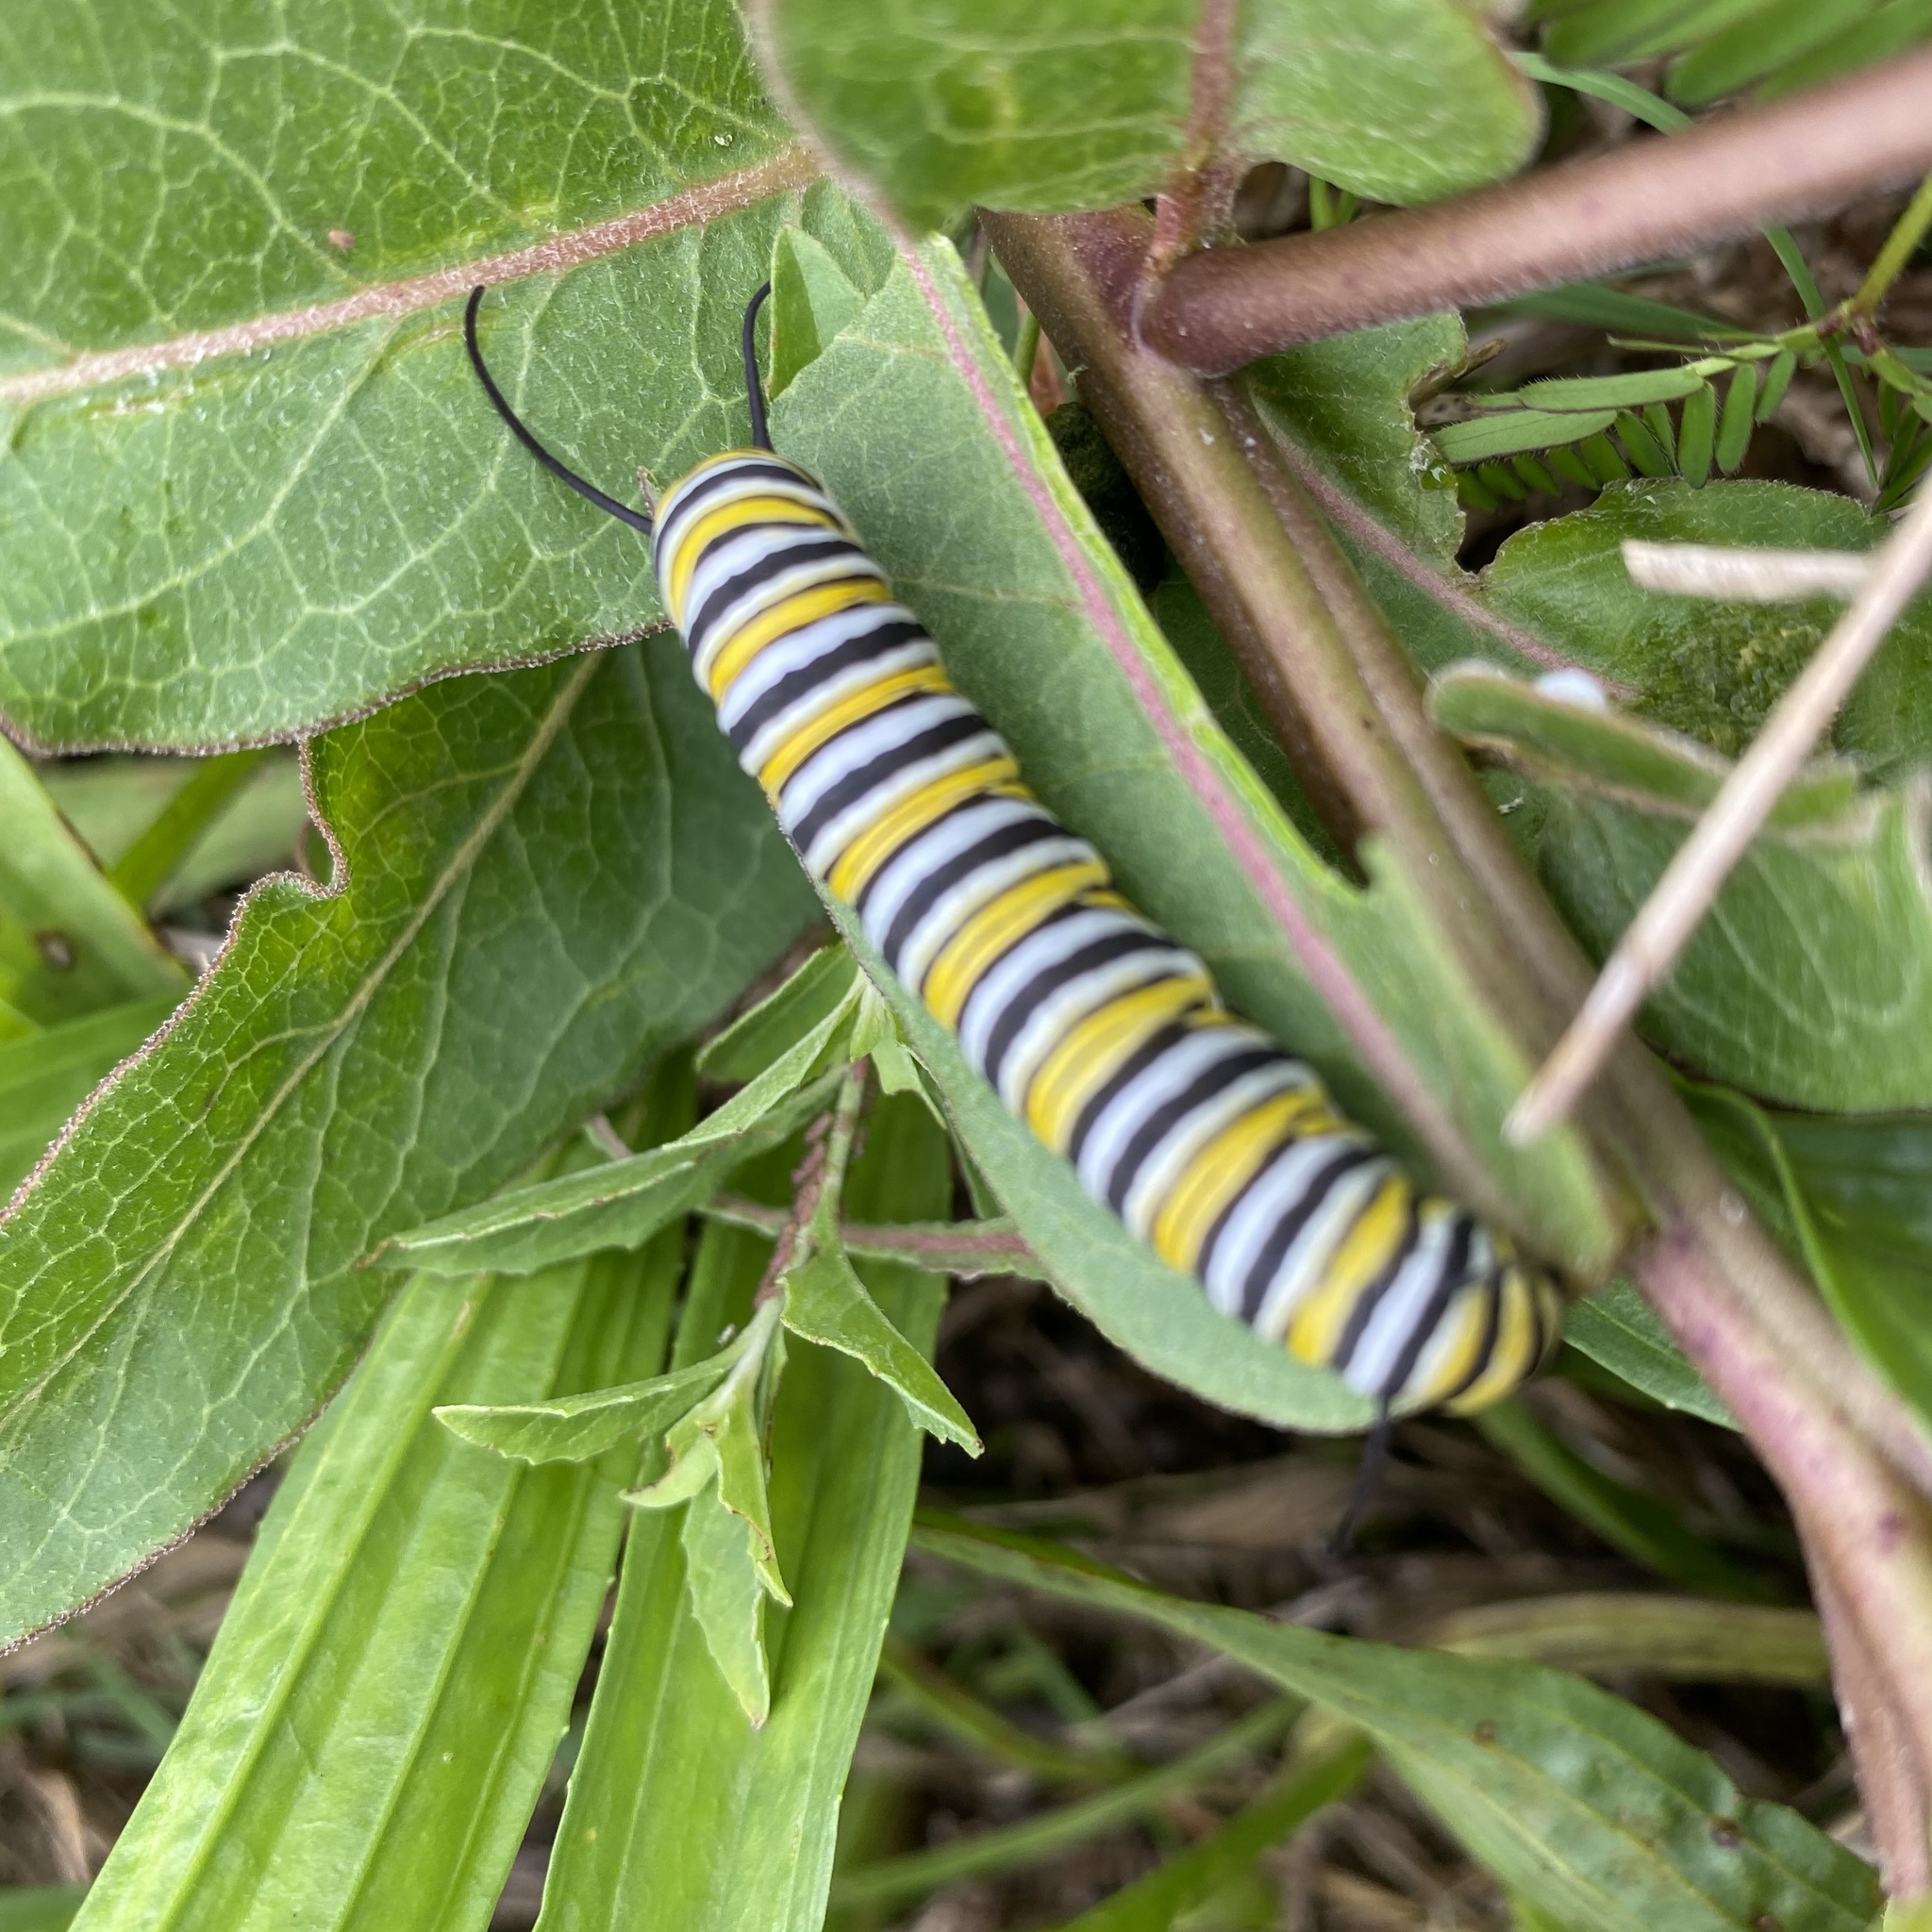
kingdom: Animalia
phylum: Arthropoda
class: Insecta
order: Lepidoptera
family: Nymphalidae
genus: Danaus
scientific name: Danaus plexippus
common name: Monarch
